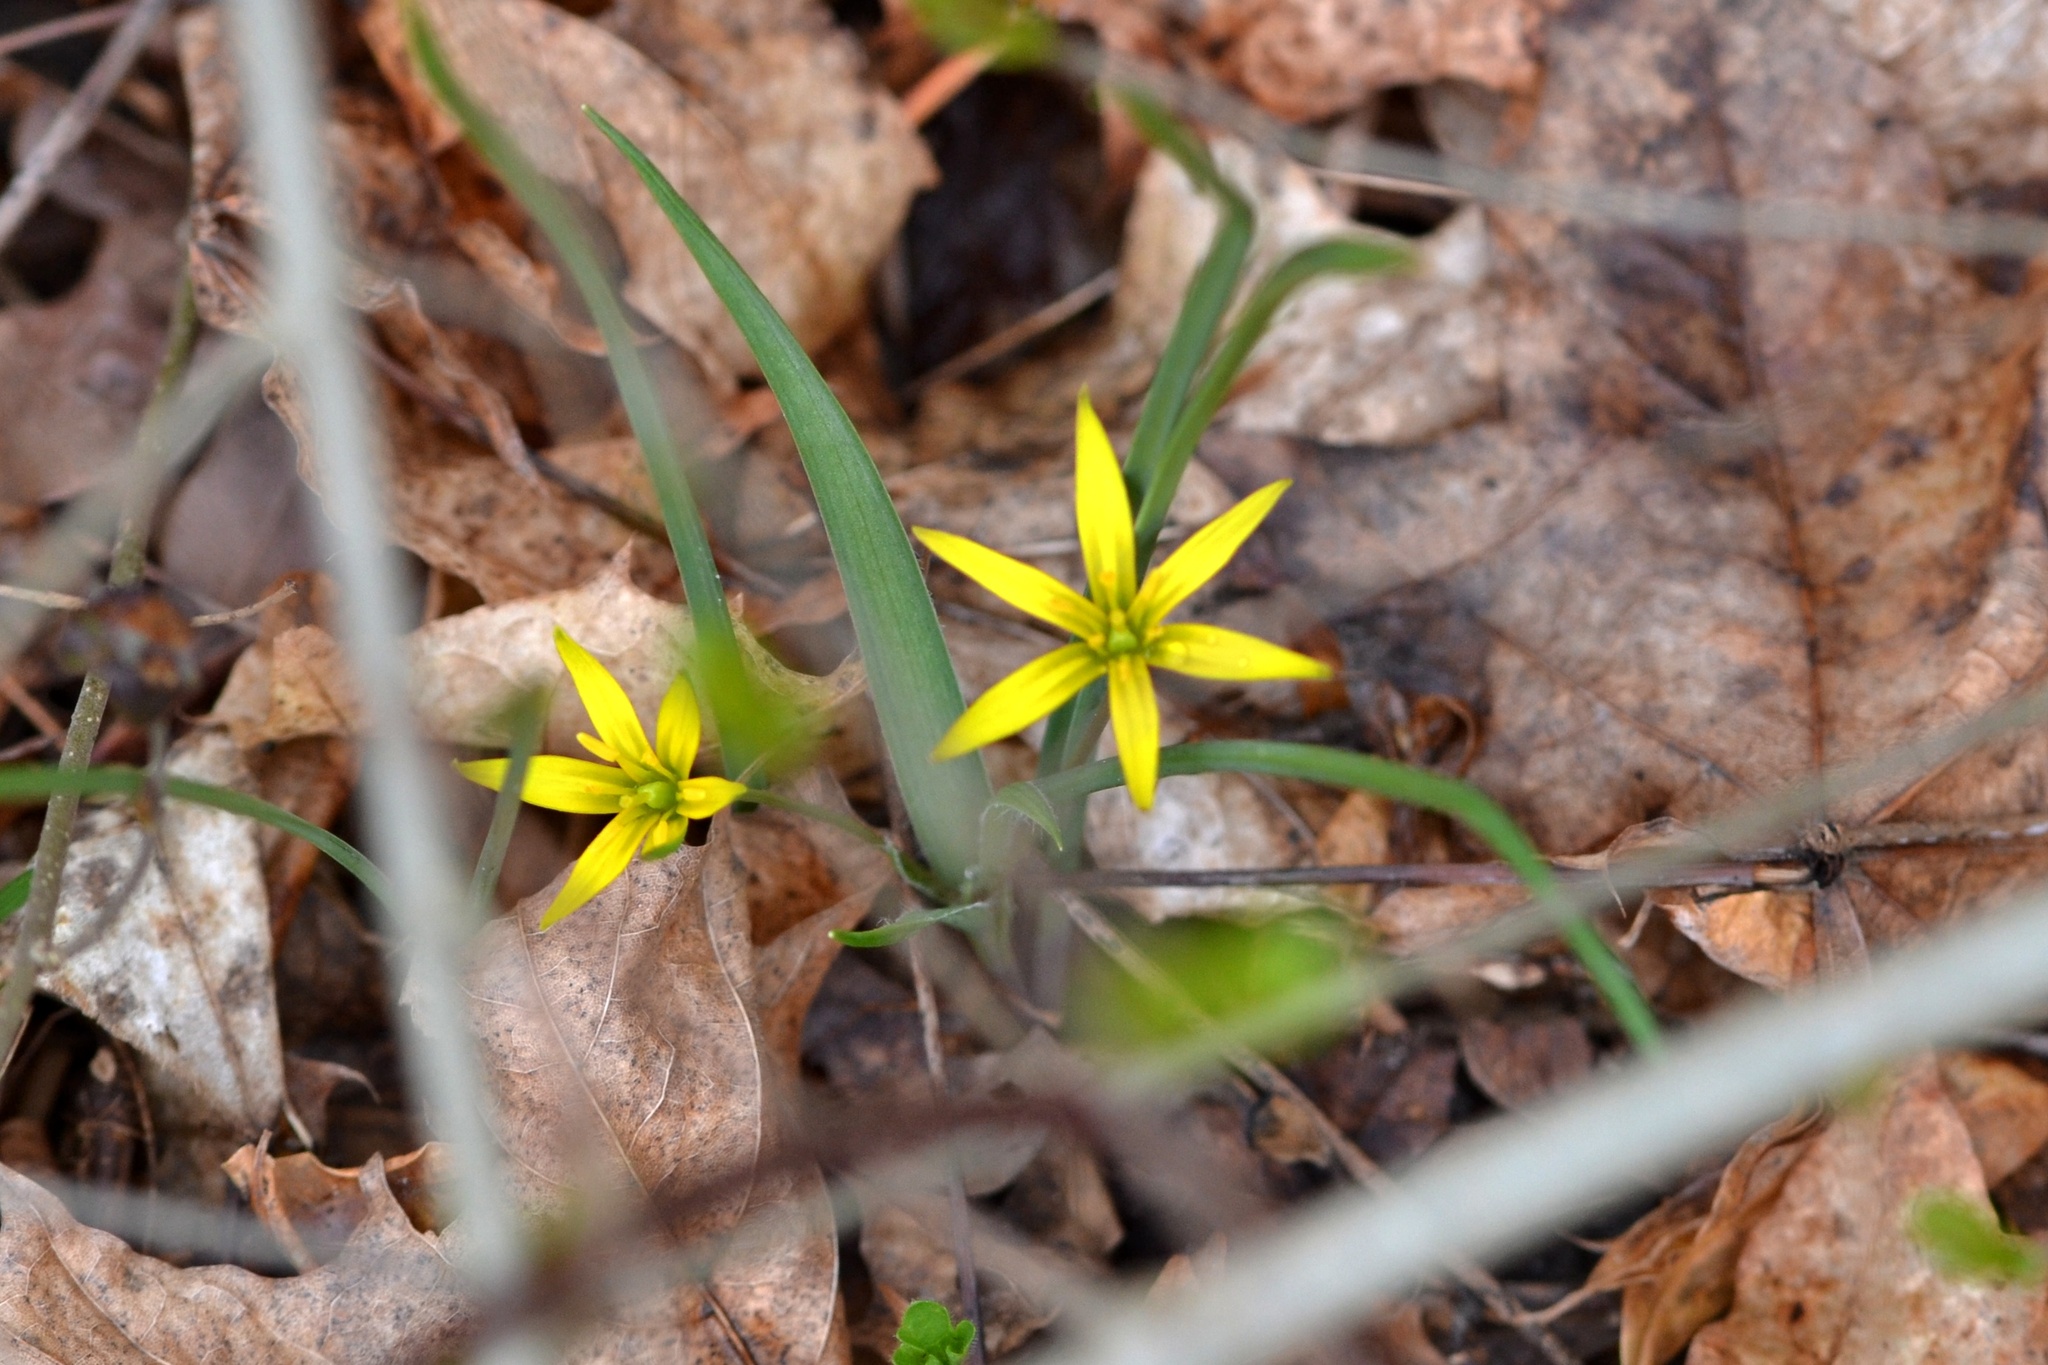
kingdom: Plantae
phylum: Tracheophyta
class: Liliopsida
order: Liliales
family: Liliaceae
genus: Gagea
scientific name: Gagea pratensis
